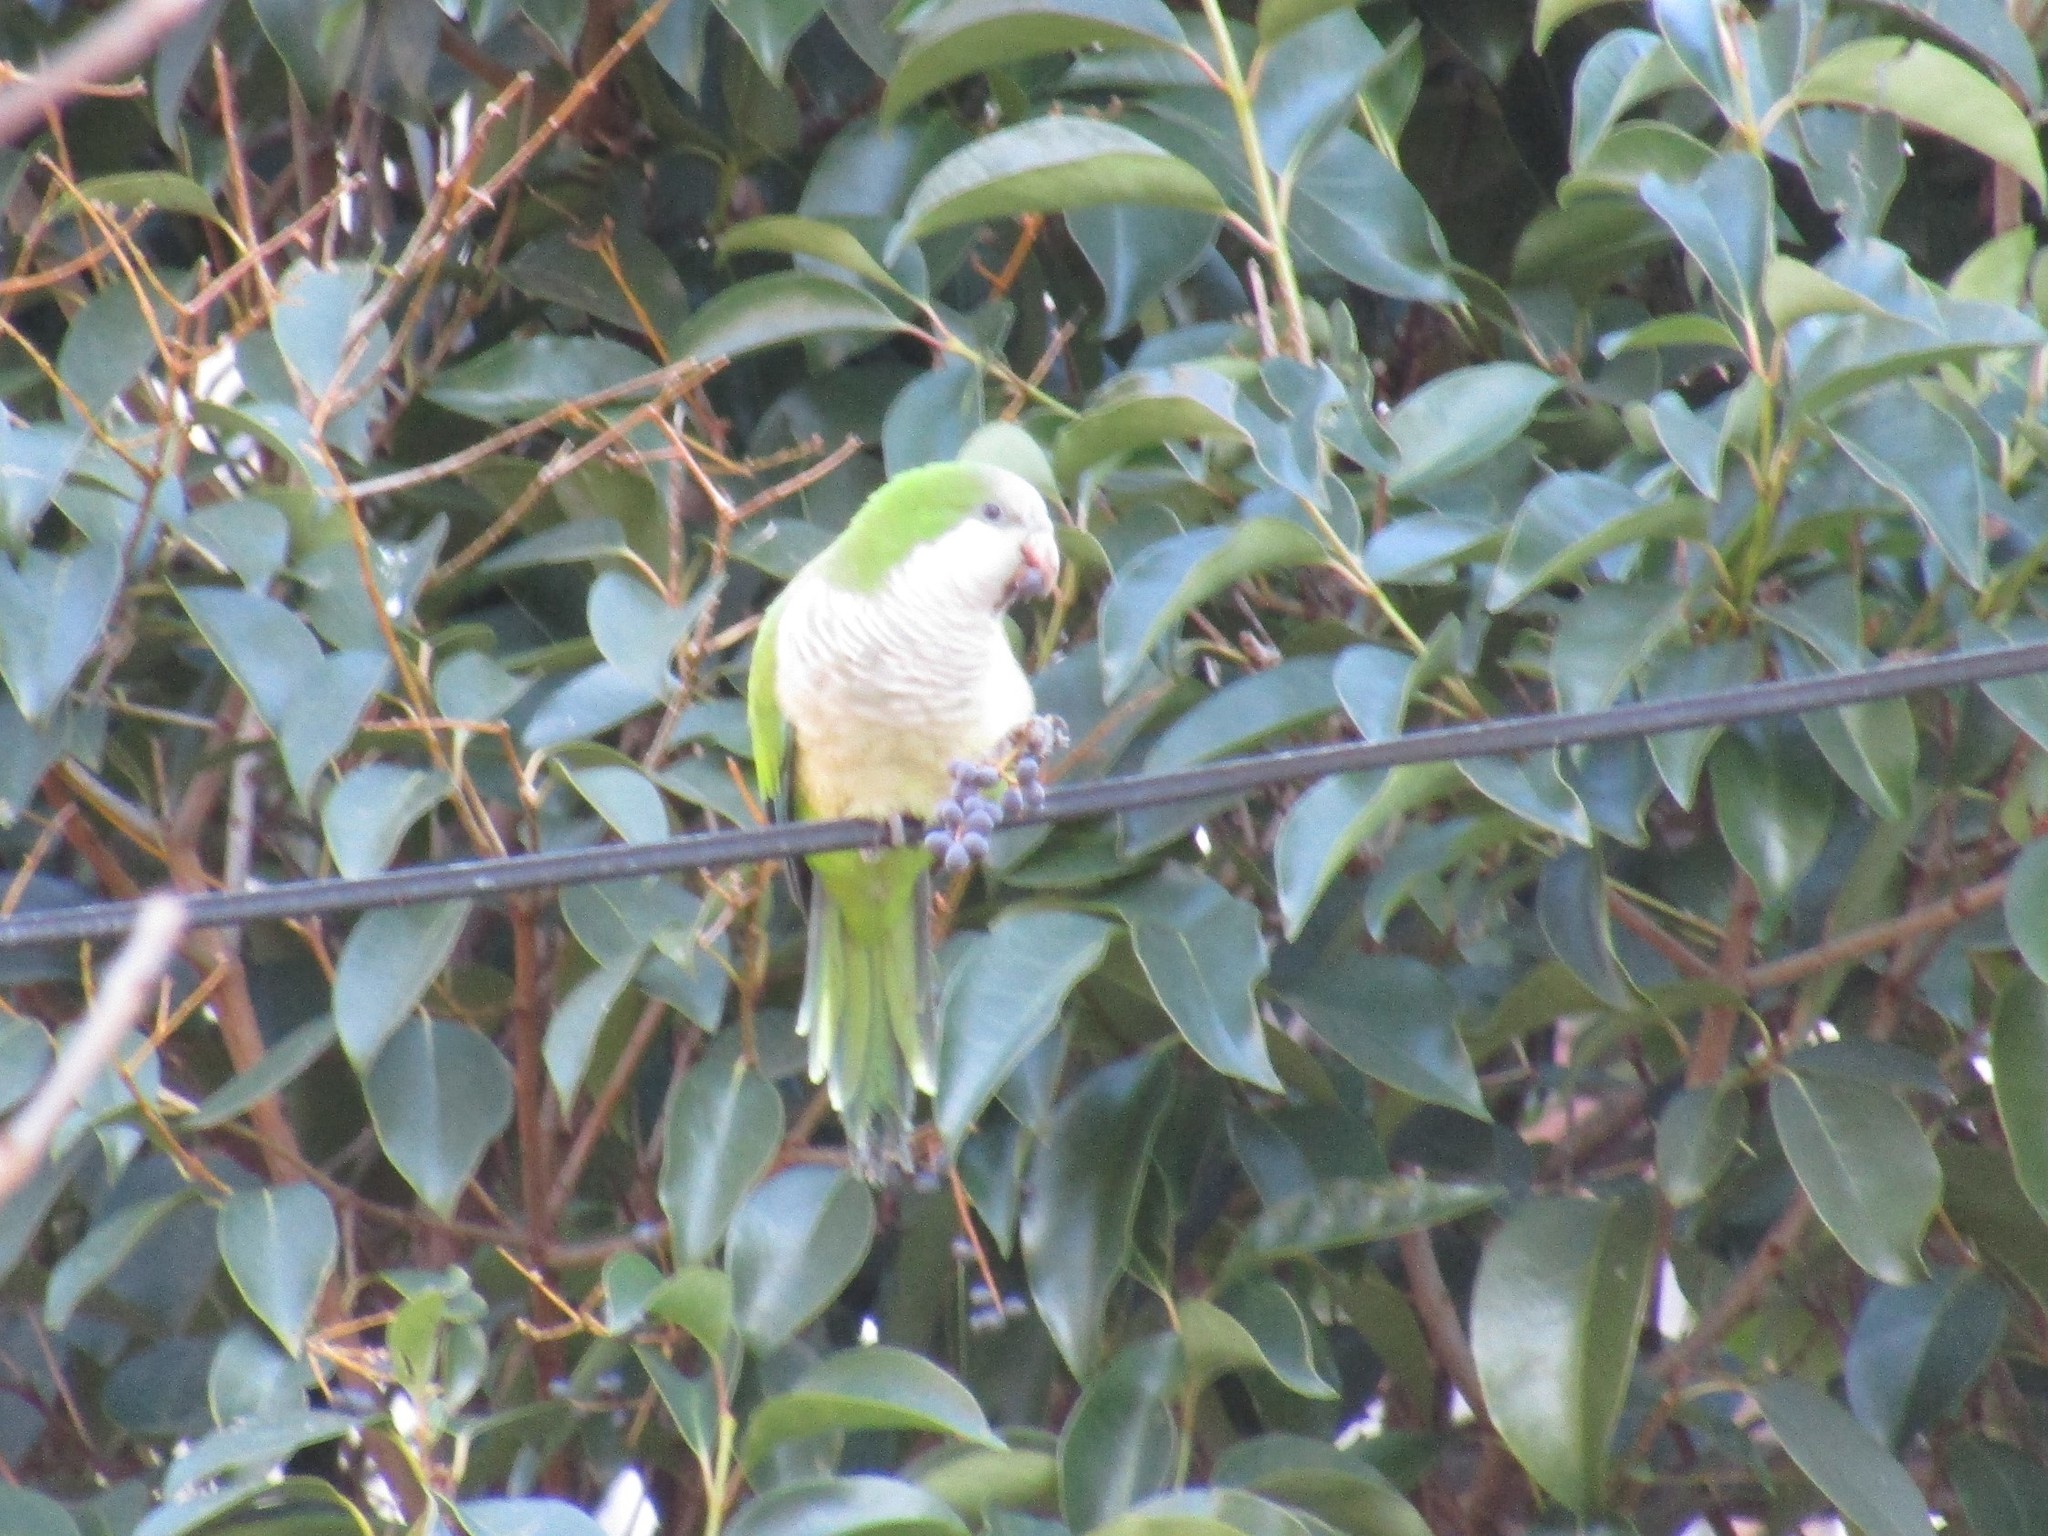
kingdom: Animalia
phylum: Chordata
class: Aves
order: Psittaciformes
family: Psittacidae
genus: Myiopsitta
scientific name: Myiopsitta monachus
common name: Monk parakeet
